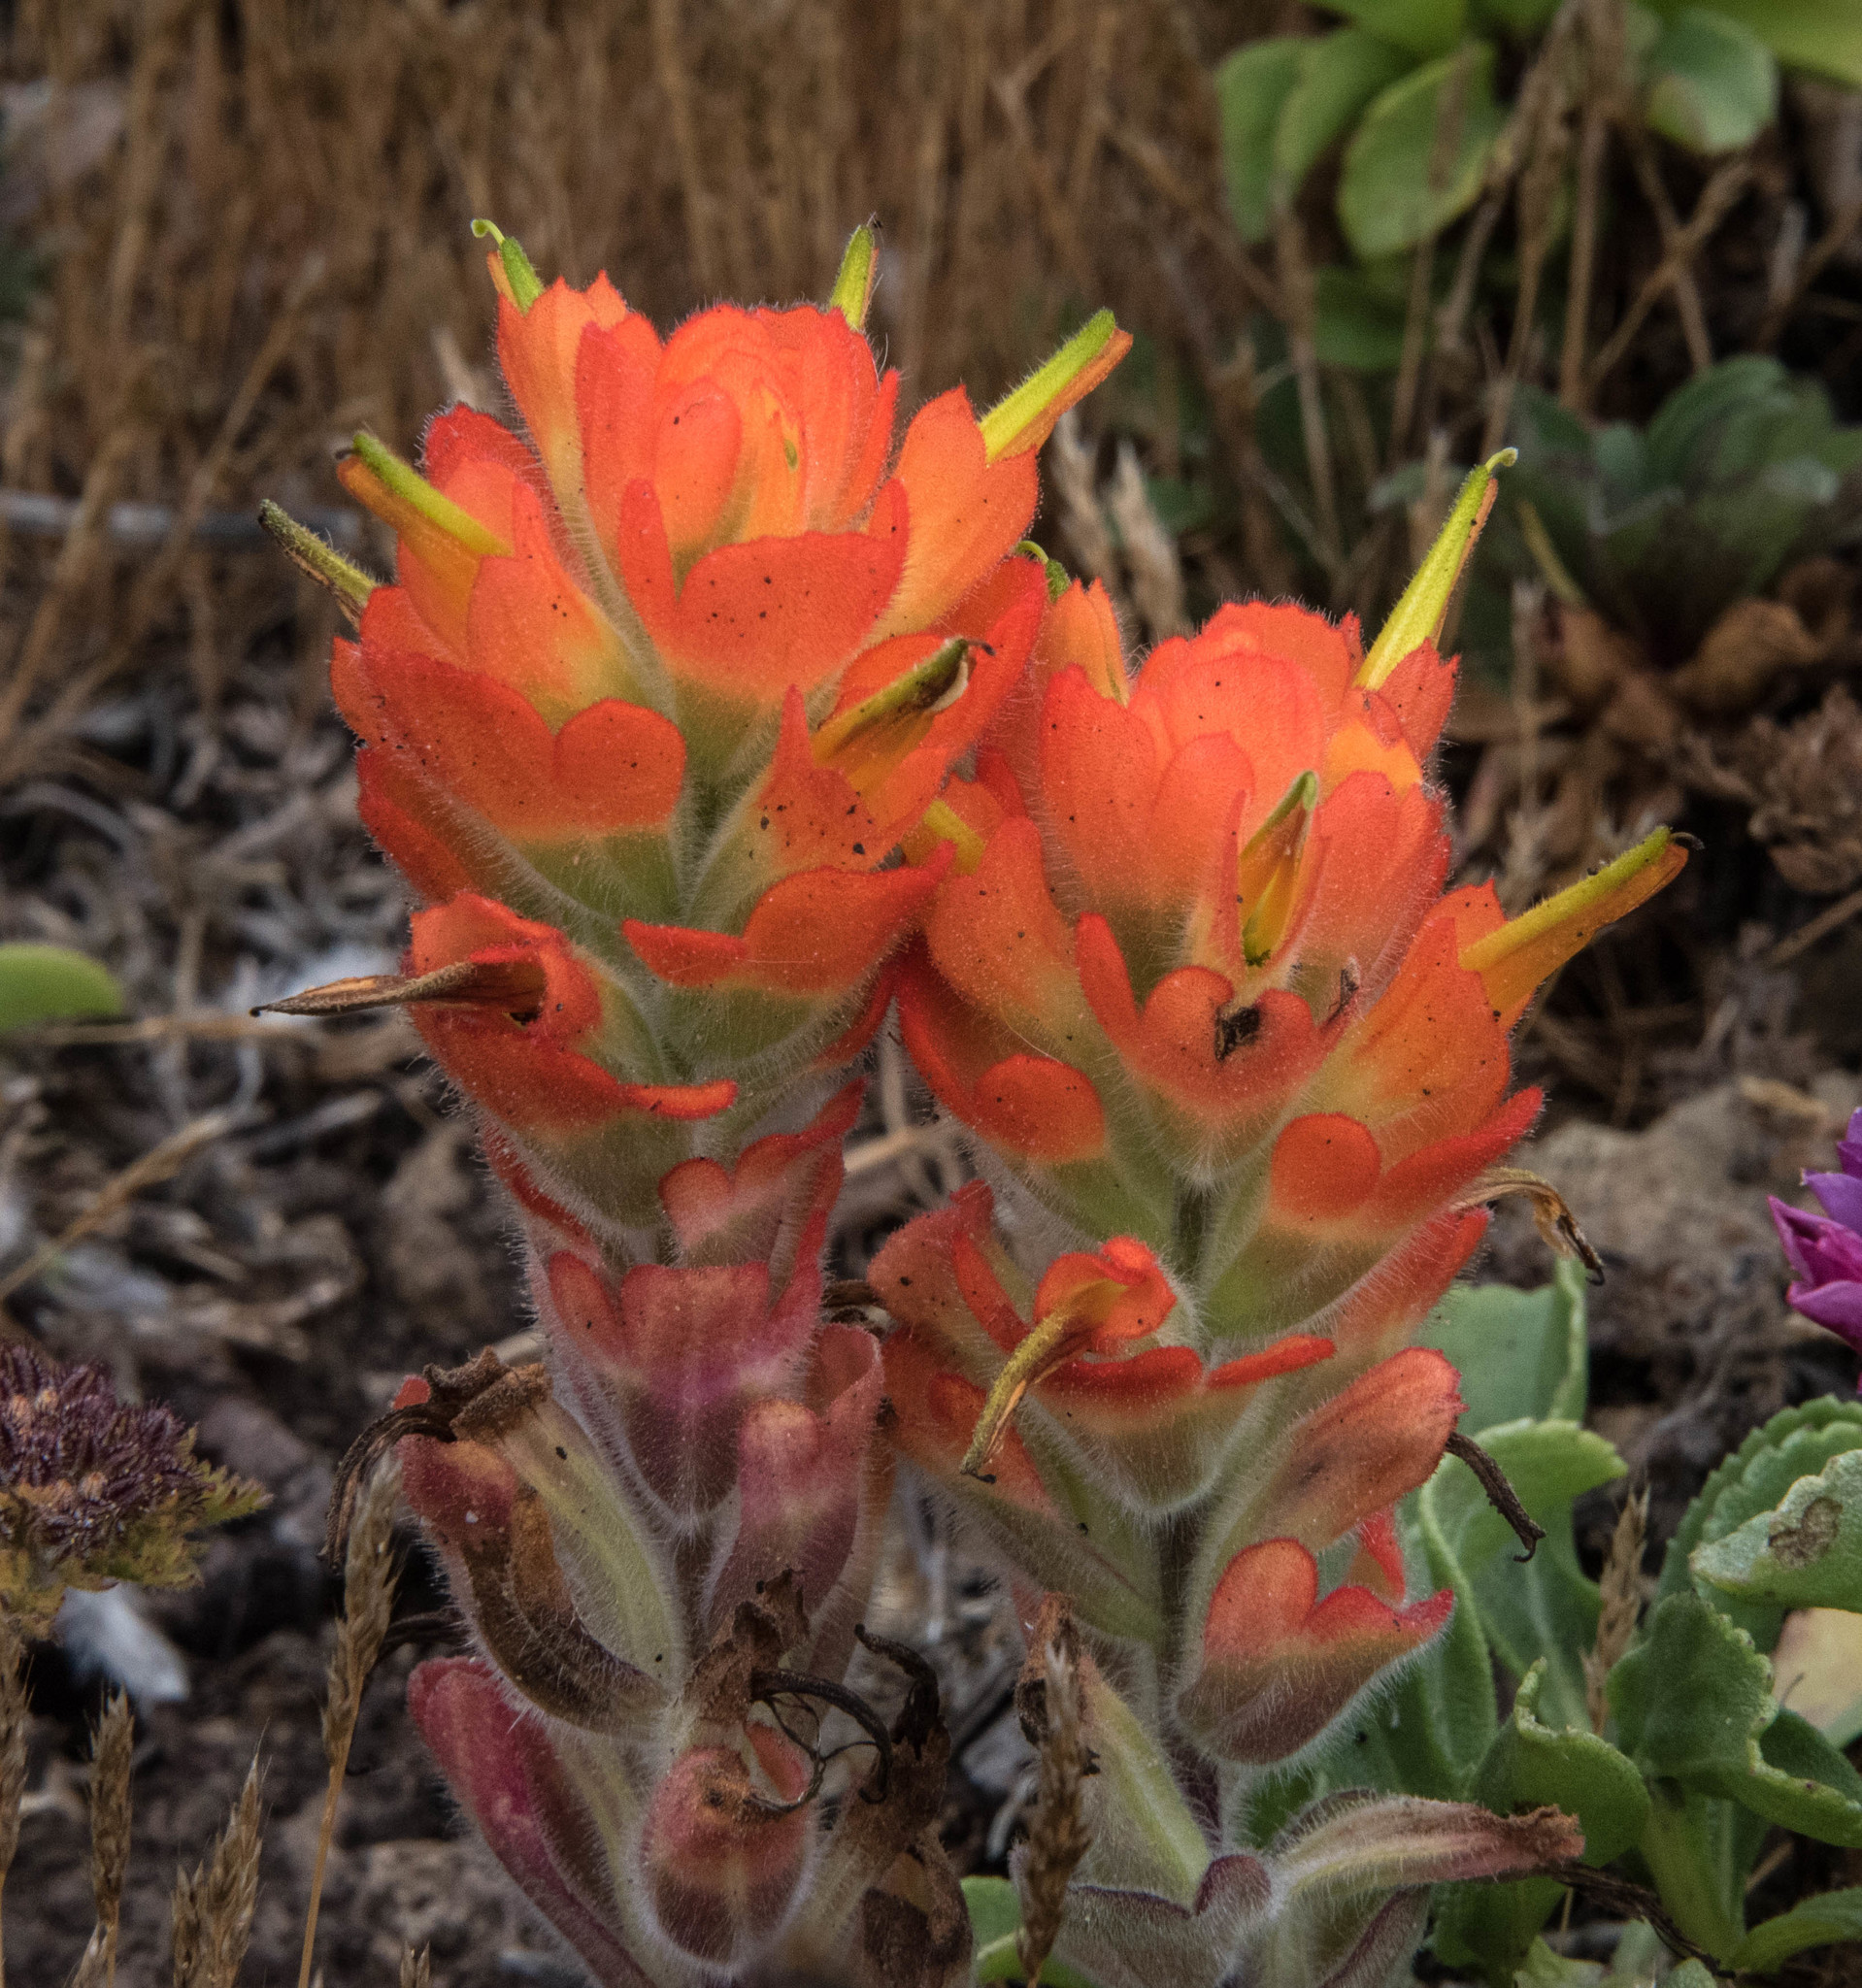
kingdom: Plantae
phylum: Tracheophyta
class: Magnoliopsida
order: Lamiales
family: Orobanchaceae
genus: Castilleja
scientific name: Castilleja mendocinensis
